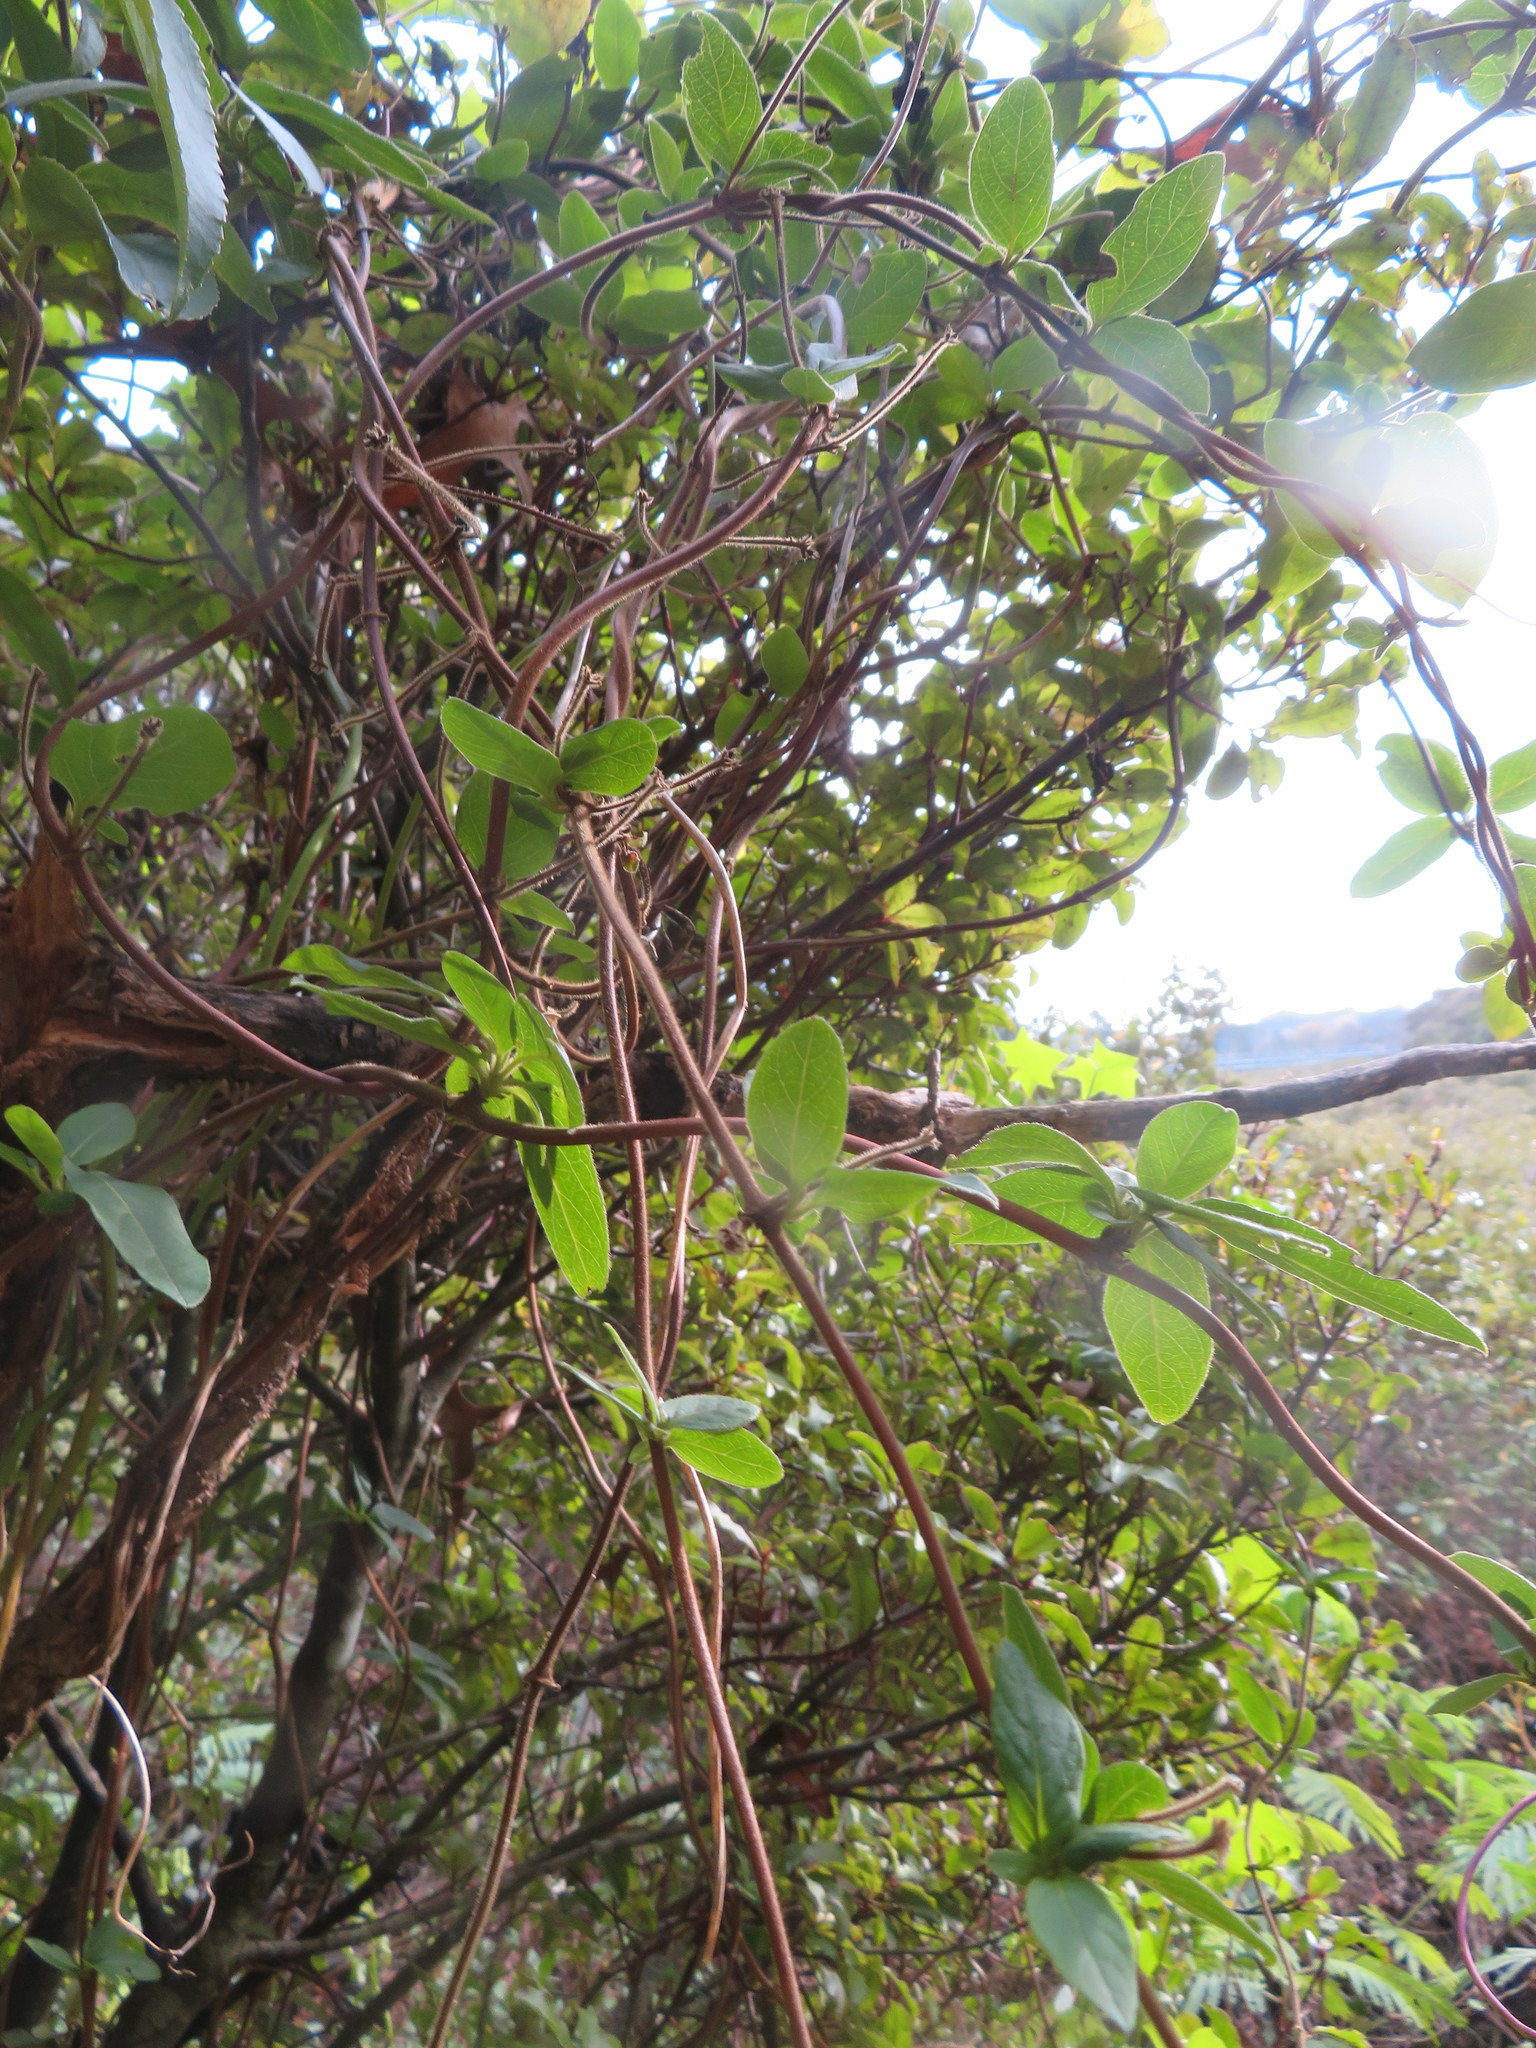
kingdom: Plantae
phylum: Tracheophyta
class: Magnoliopsida
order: Dipsacales
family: Caprifoliaceae
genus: Lonicera
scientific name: Lonicera japonica
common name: Japanese honeysuckle
